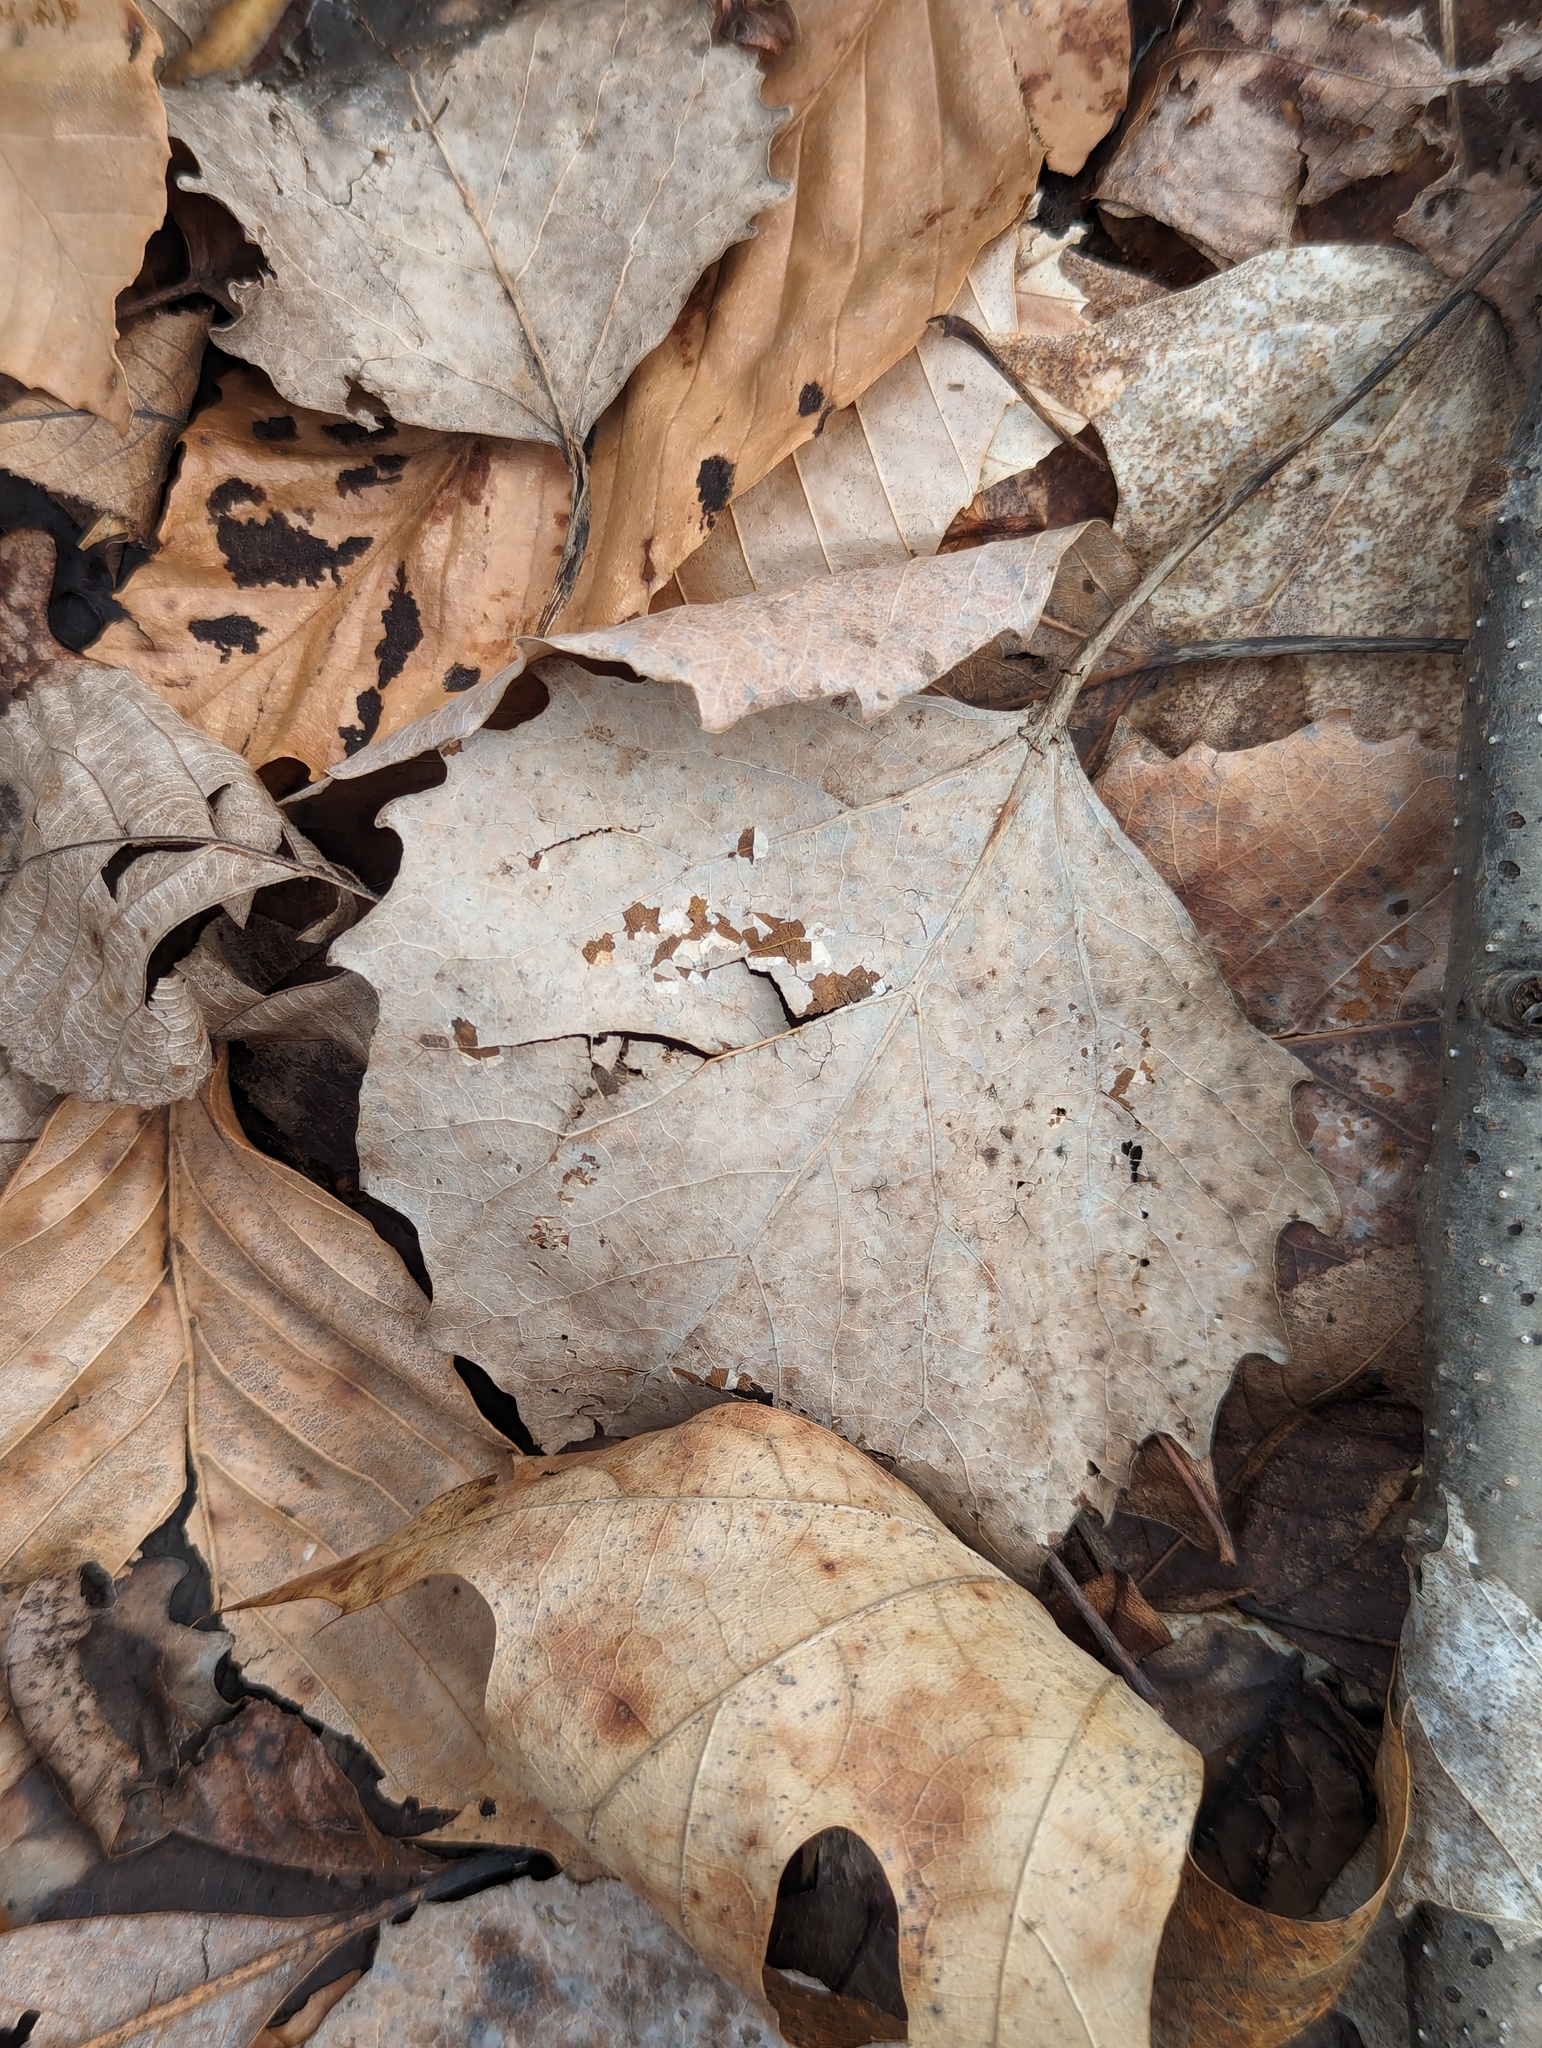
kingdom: Plantae
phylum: Tracheophyta
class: Magnoliopsida
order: Malpighiales
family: Salicaceae
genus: Populus
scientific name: Populus grandidentata
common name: Bigtooth aspen
